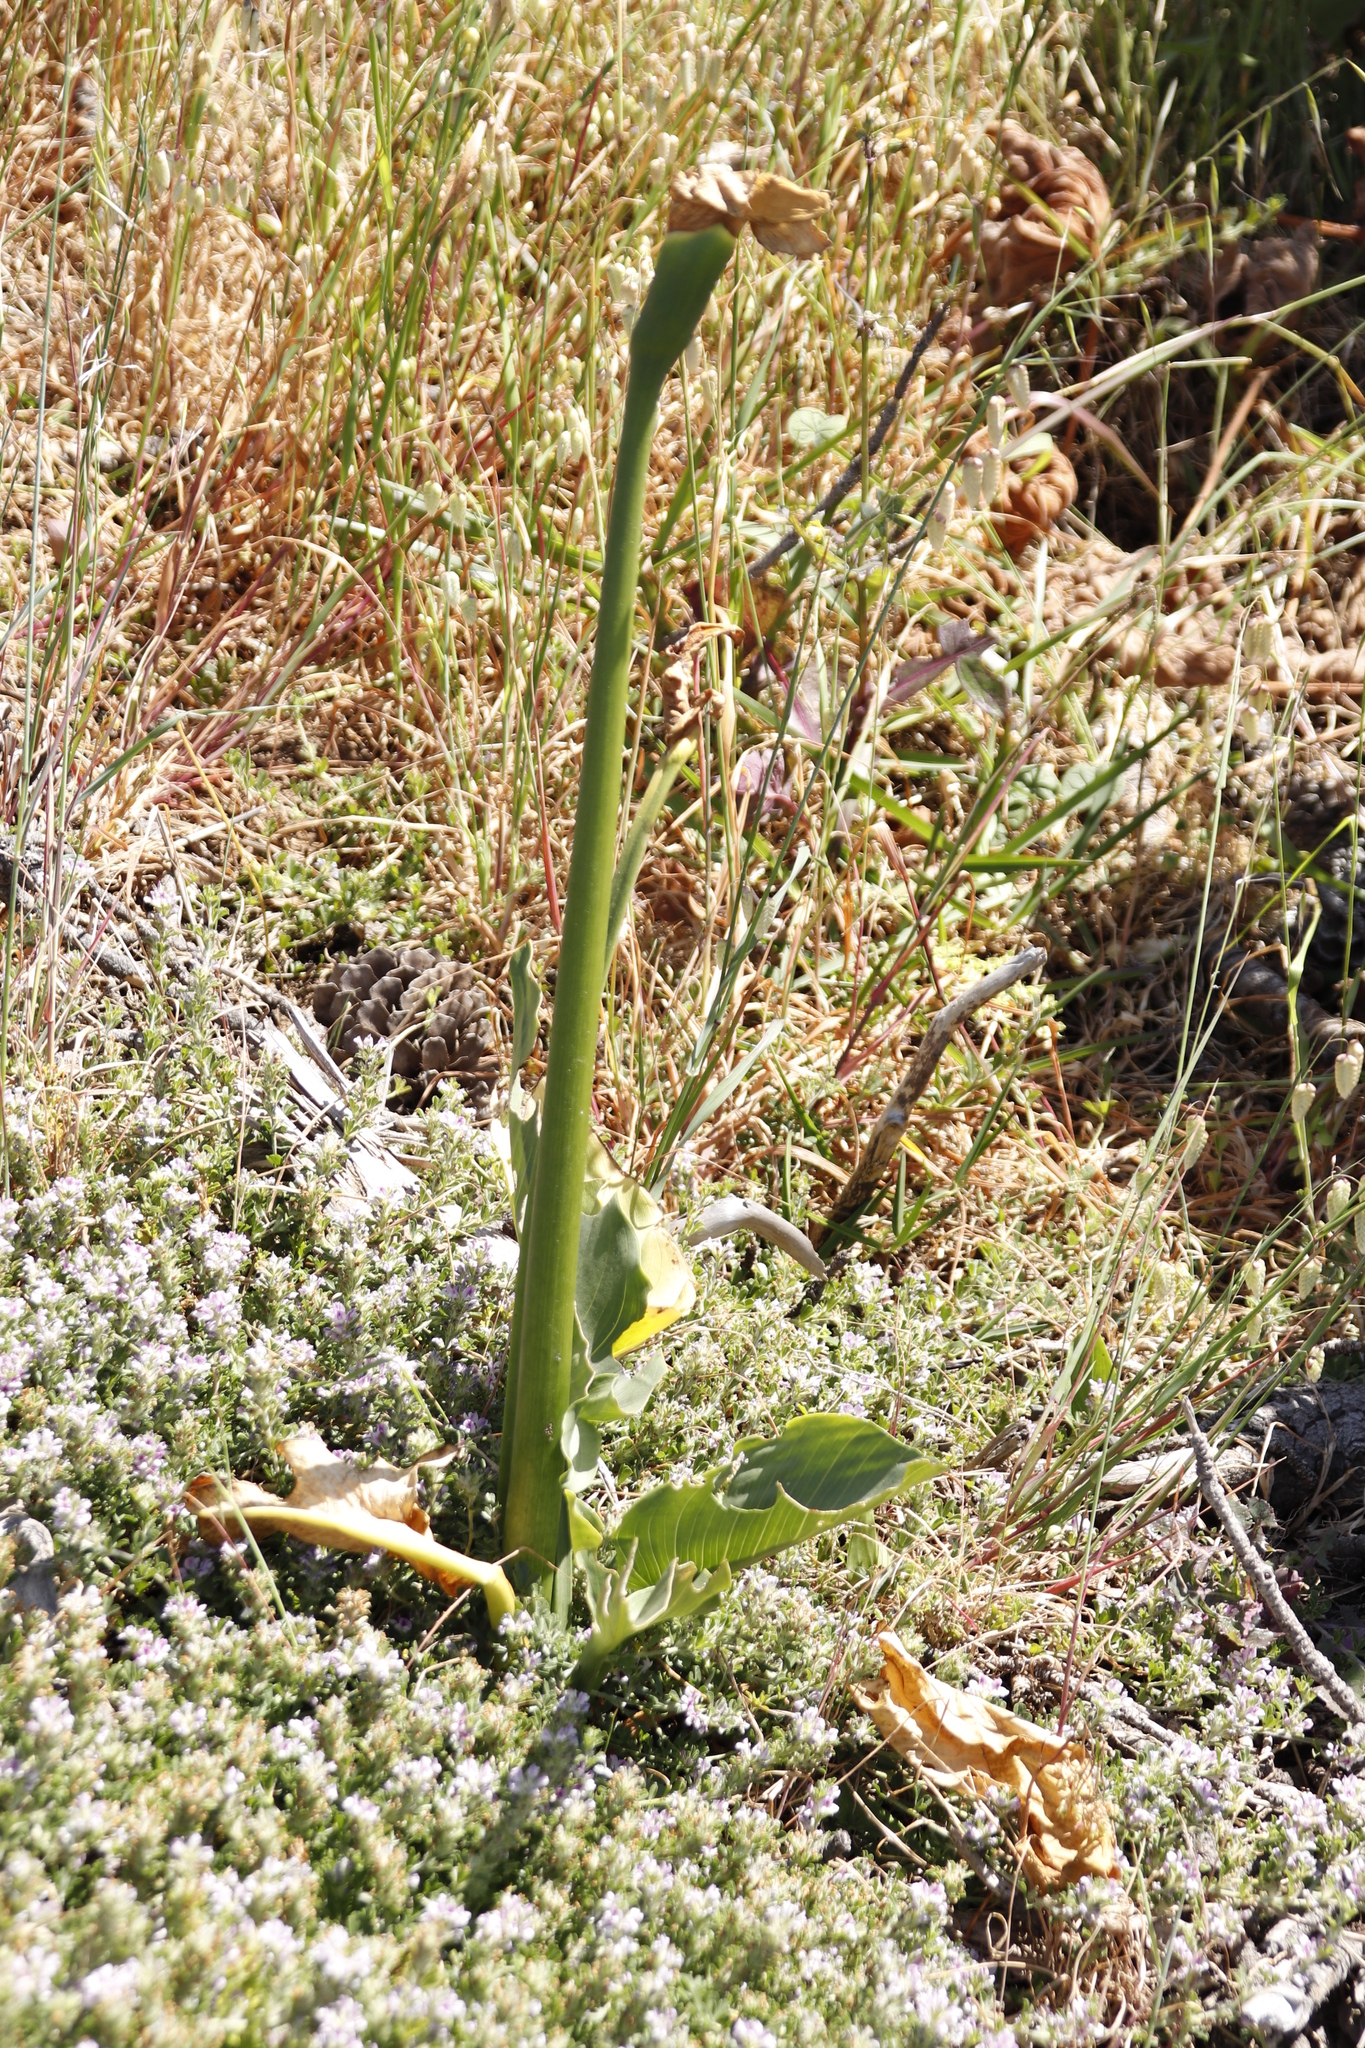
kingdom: Plantae
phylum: Tracheophyta
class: Liliopsida
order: Alismatales
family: Araceae
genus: Zantedeschia
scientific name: Zantedeschia aethiopica
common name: Altar-lily
